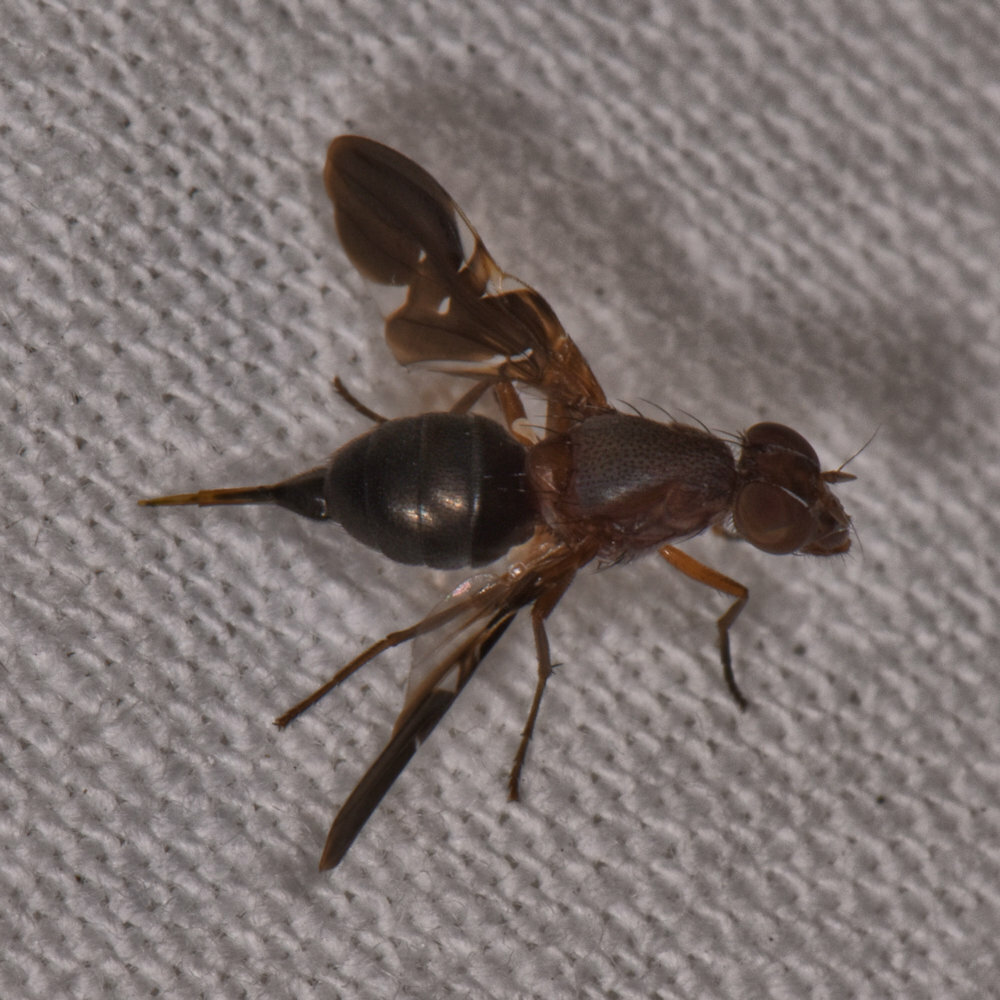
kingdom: Animalia
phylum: Arthropoda
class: Insecta
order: Diptera
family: Ulidiidae
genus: Delphinia
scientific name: Delphinia picta
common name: Common picture-winged fly
